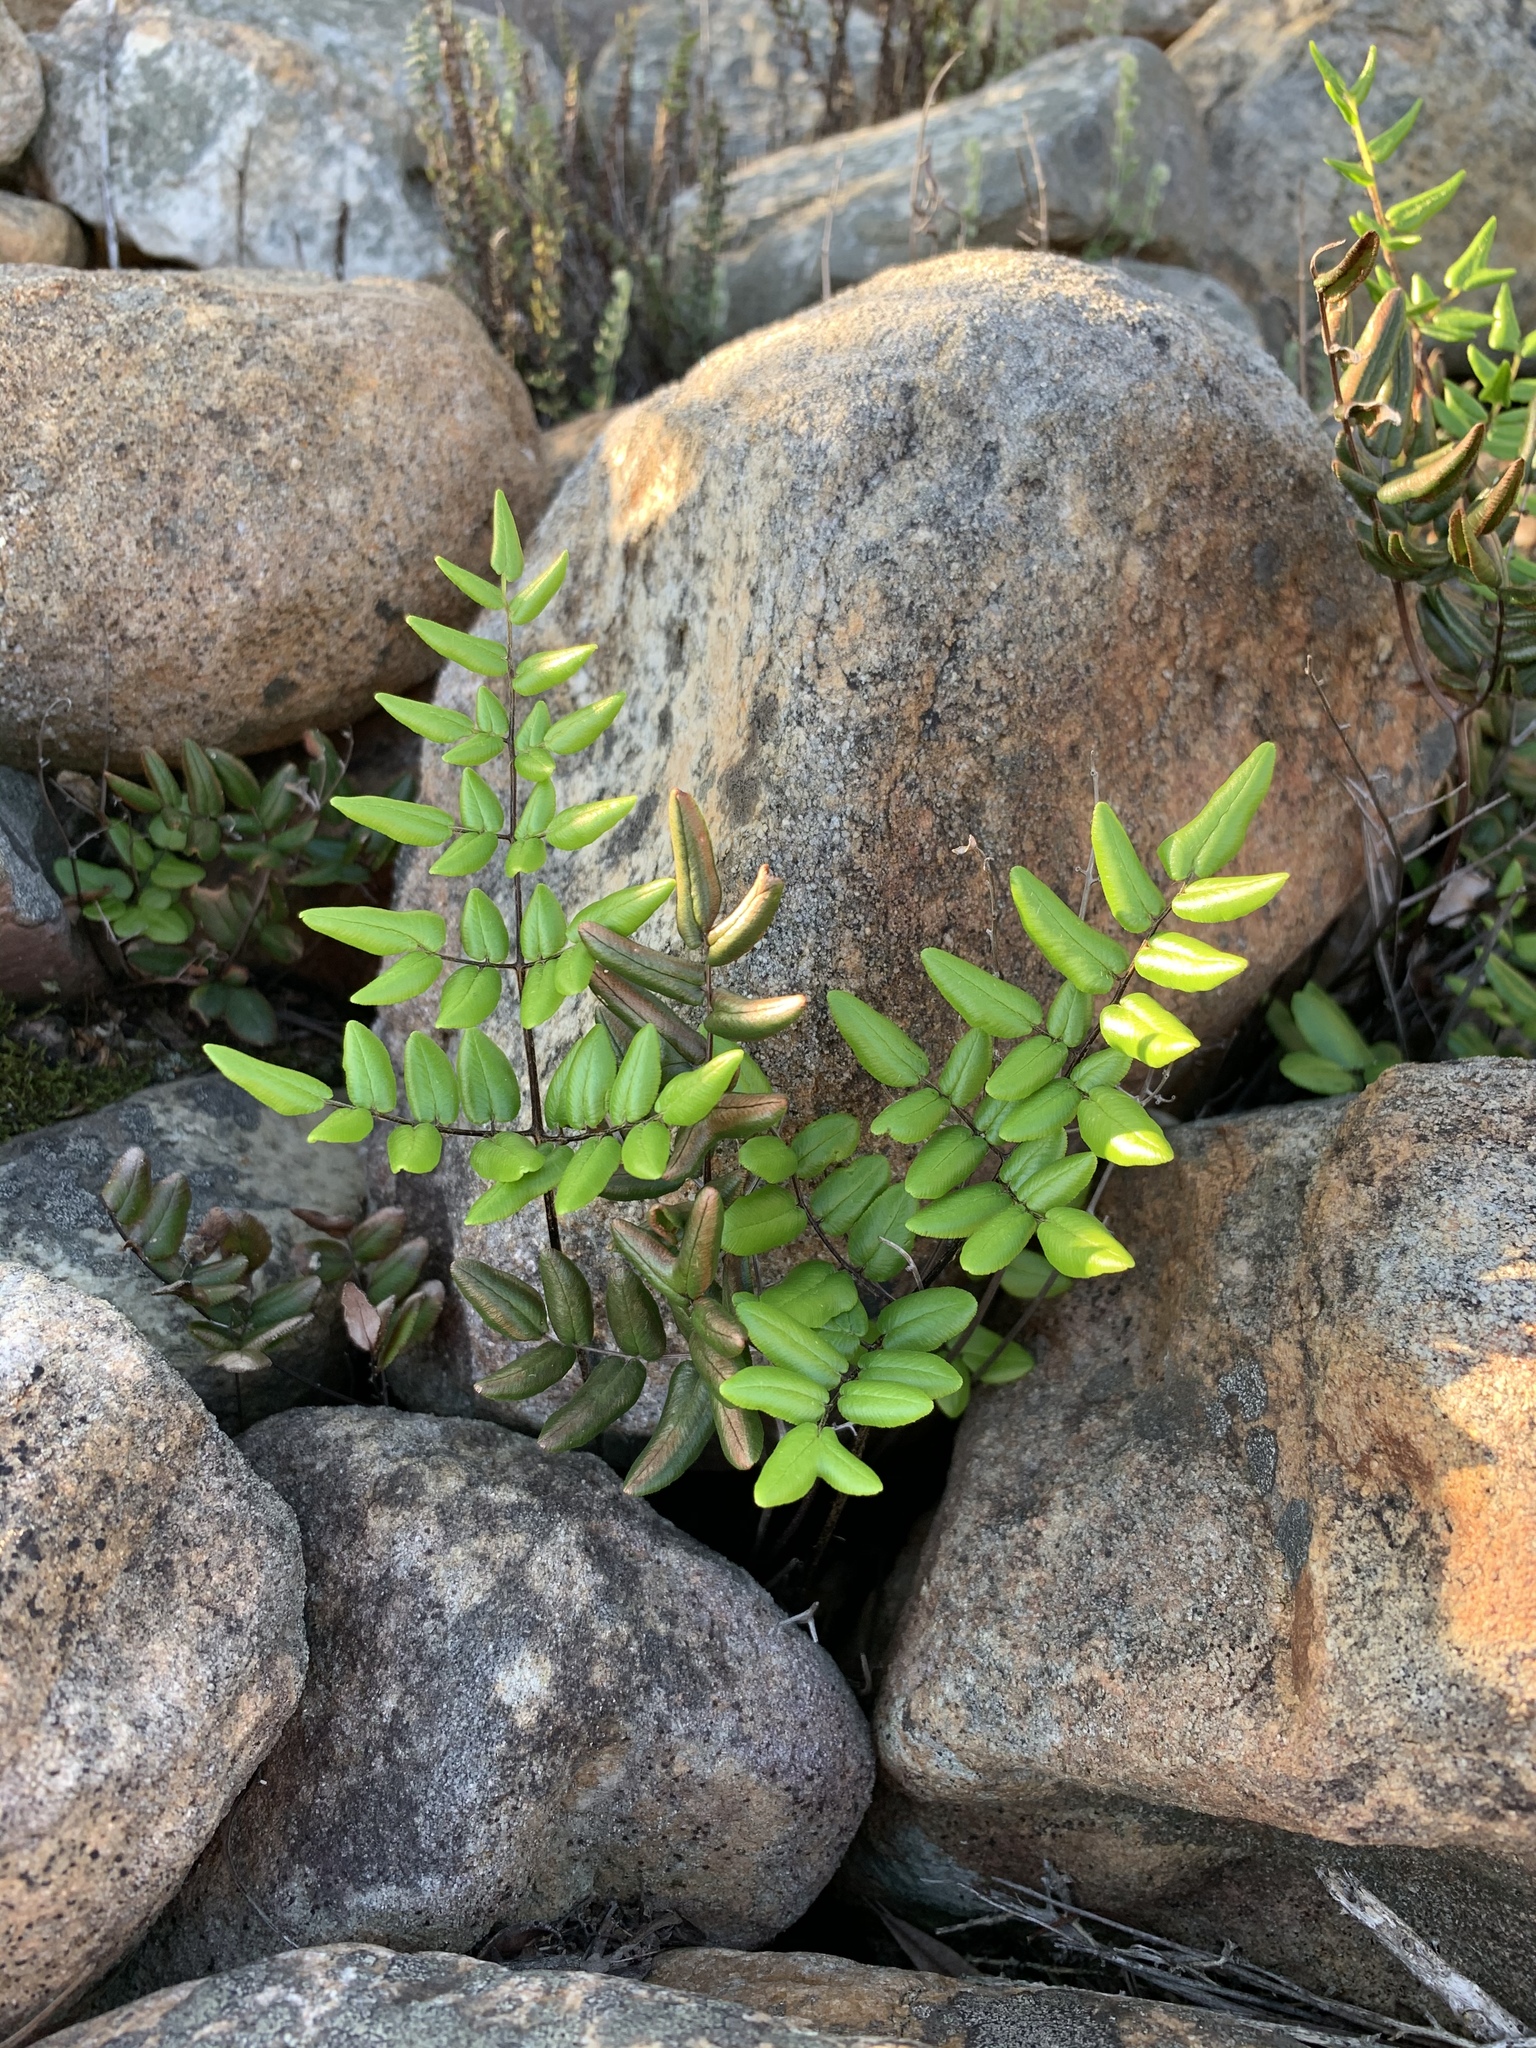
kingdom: Plantae
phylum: Tracheophyta
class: Polypodiopsida
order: Polypodiales
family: Pteridaceae
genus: Pellaea
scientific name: Pellaea pteroides
